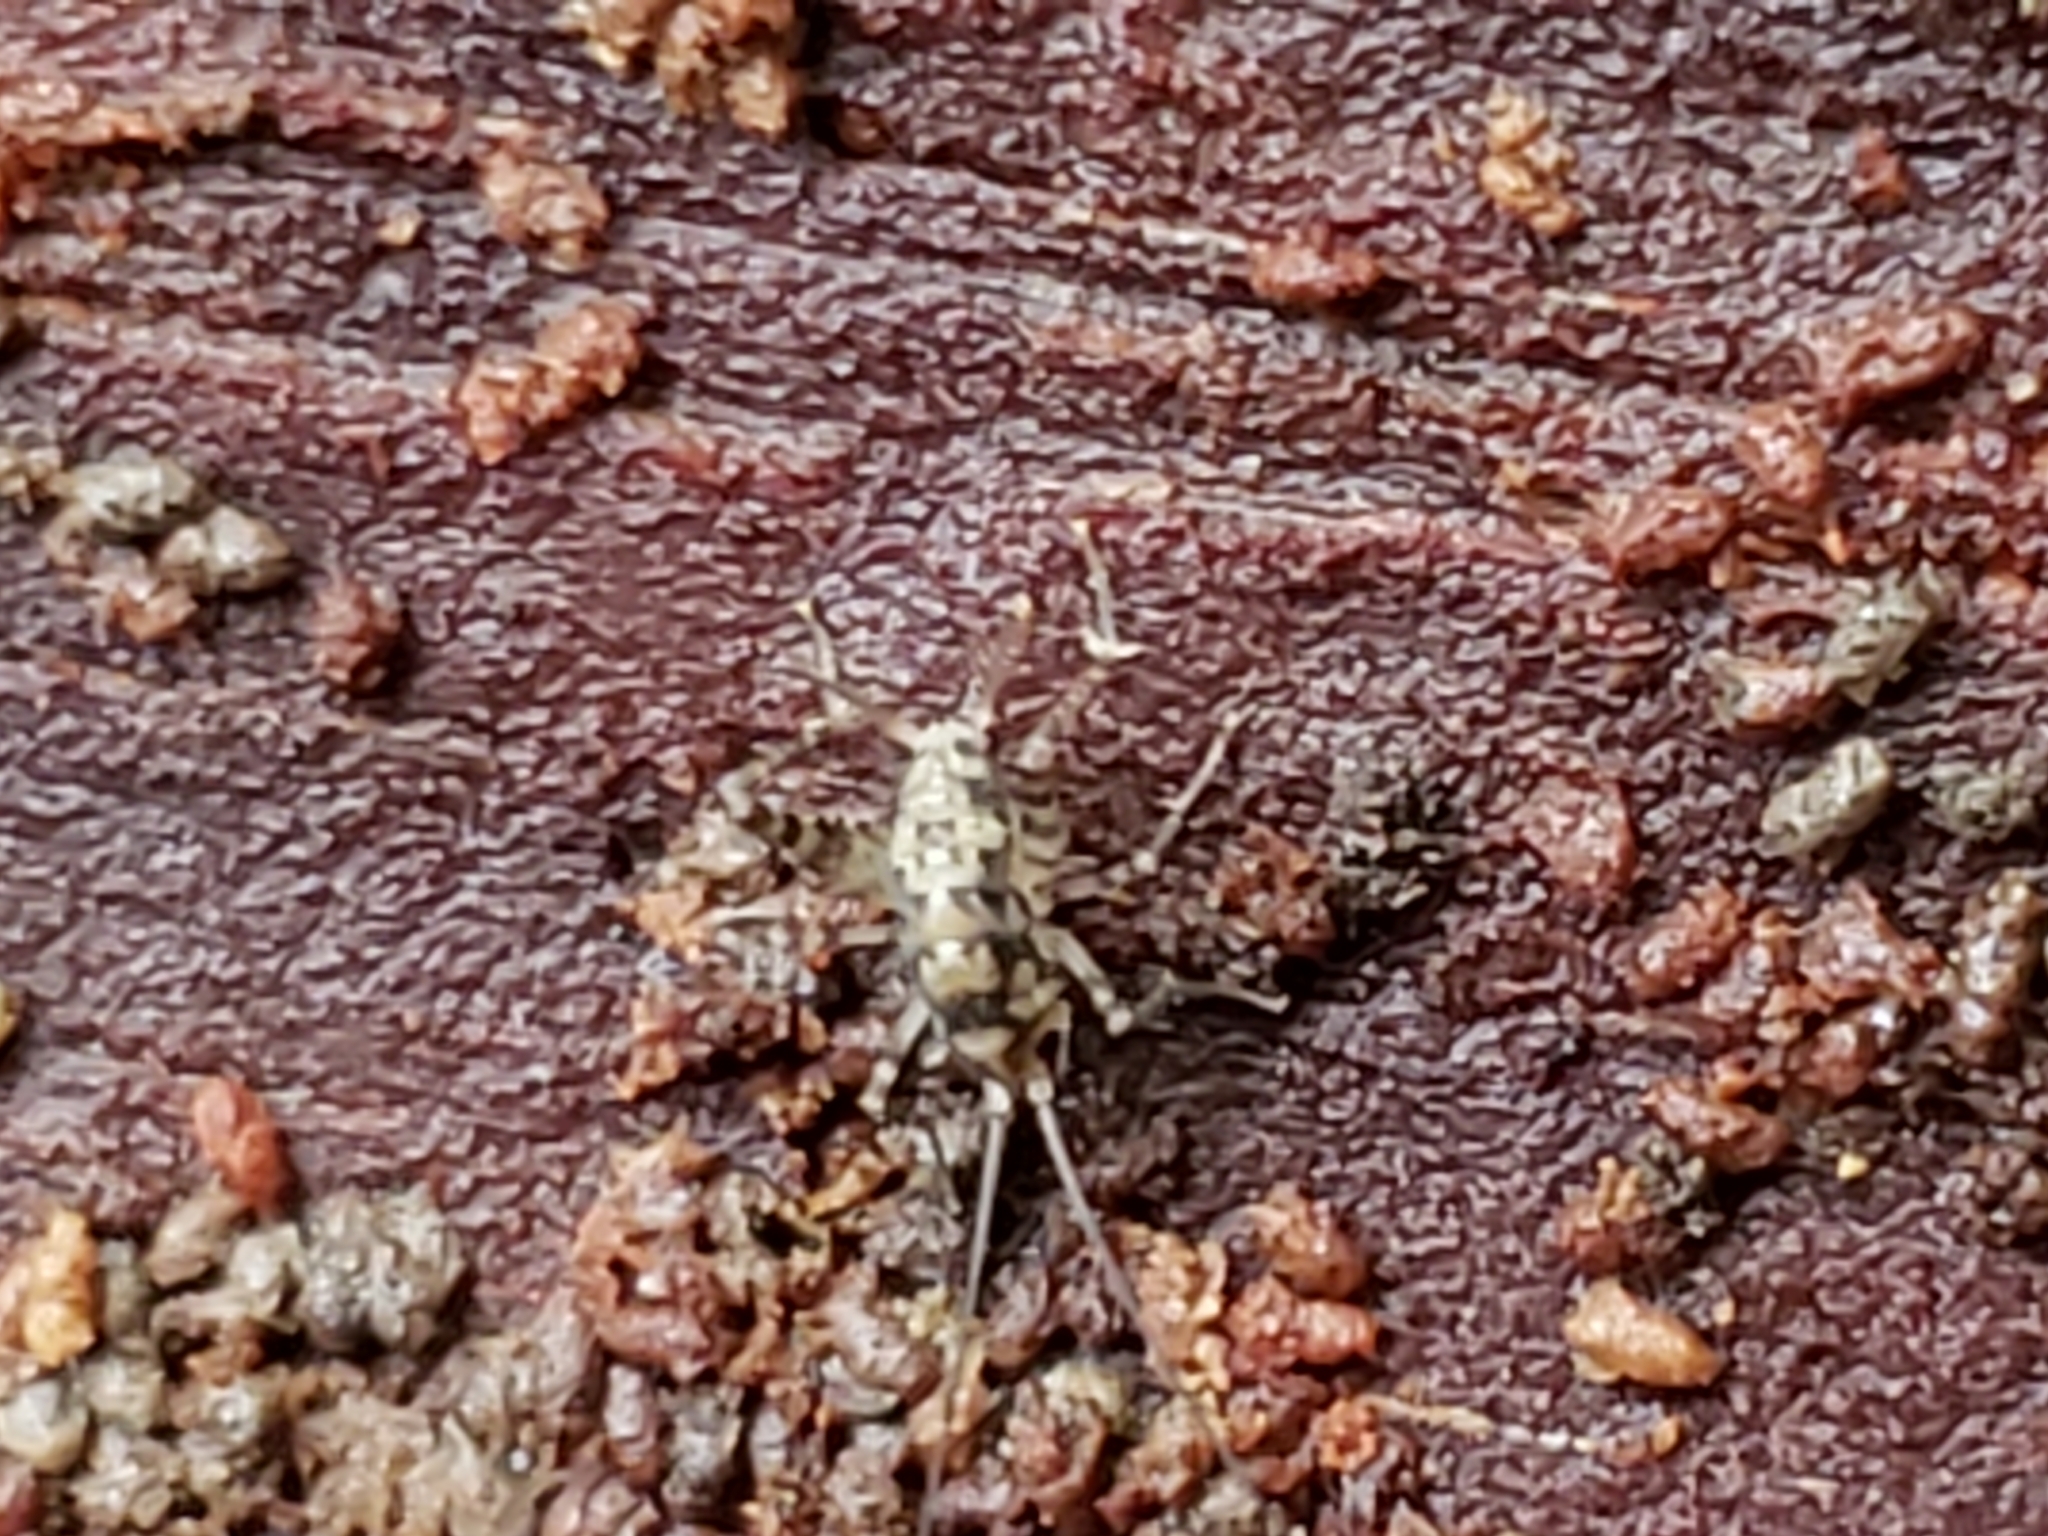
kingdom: Animalia
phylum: Arthropoda
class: Insecta
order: Orthoptera
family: Rhaphidophoridae
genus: Tachycines
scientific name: Tachycines asynamorus
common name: Greenhouse camel cricket
